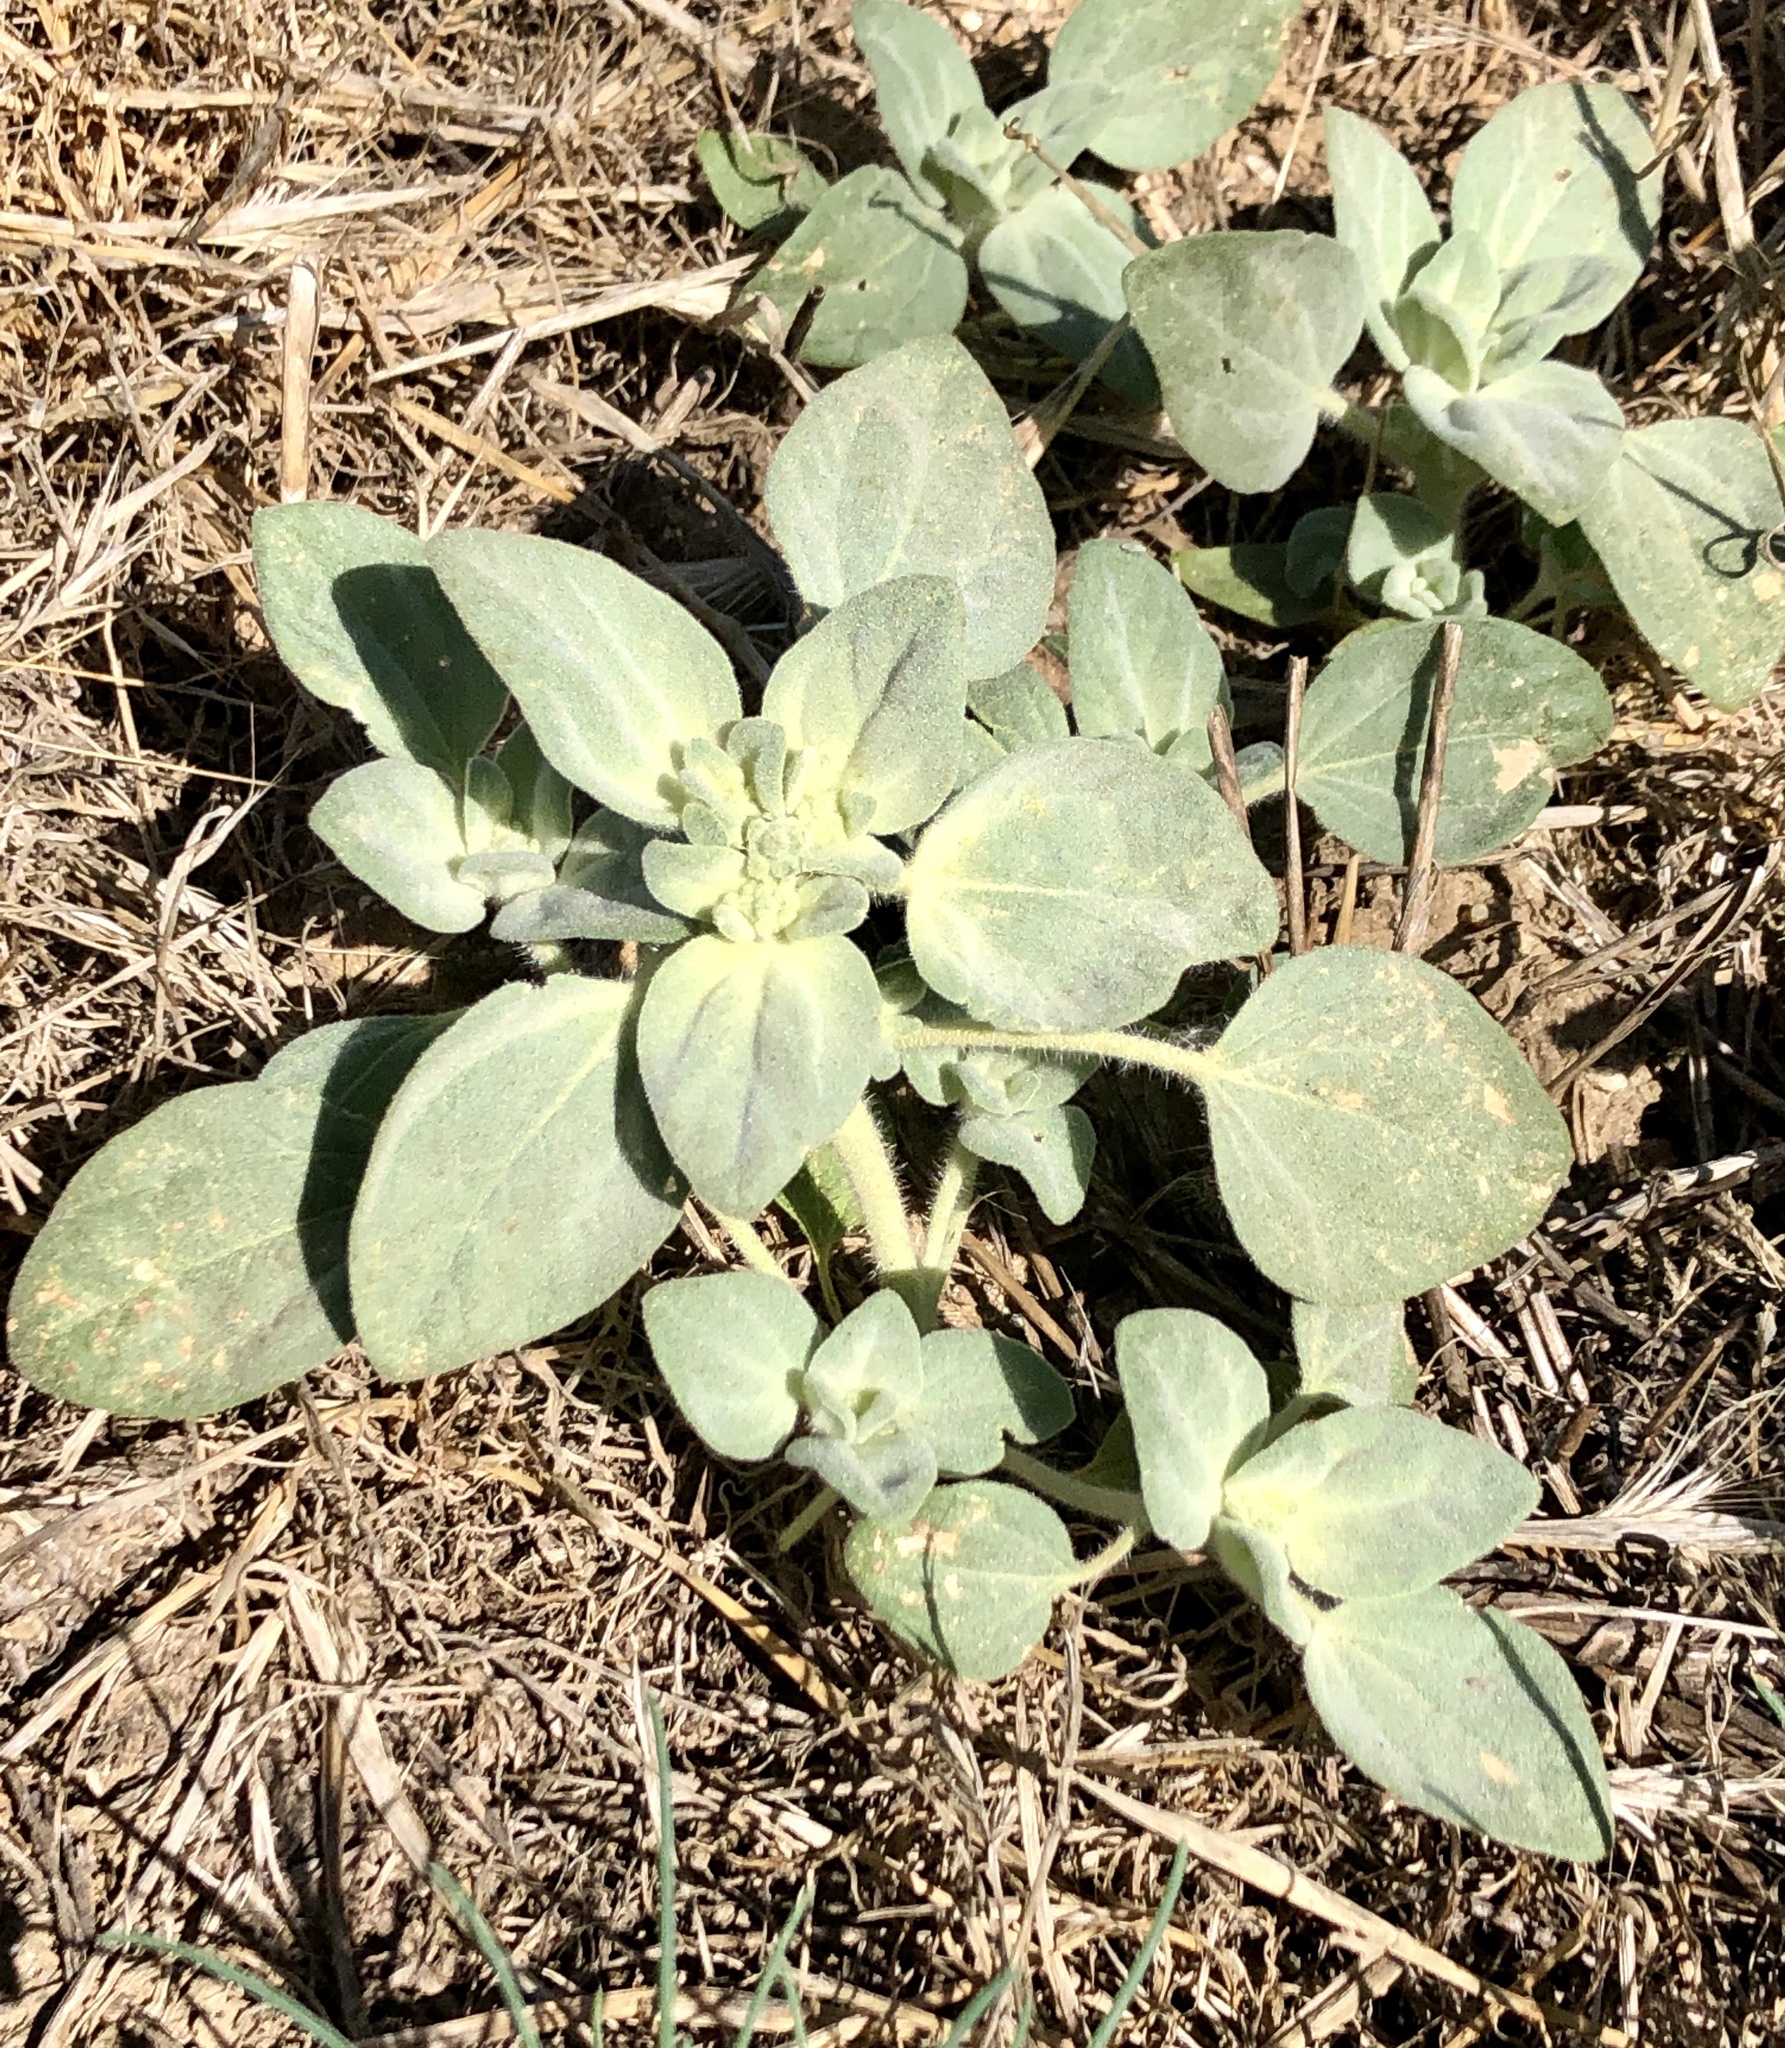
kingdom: Plantae
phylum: Tracheophyta
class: Magnoliopsida
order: Malpighiales
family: Euphorbiaceae
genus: Croton
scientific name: Croton setiger
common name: Dove weed
